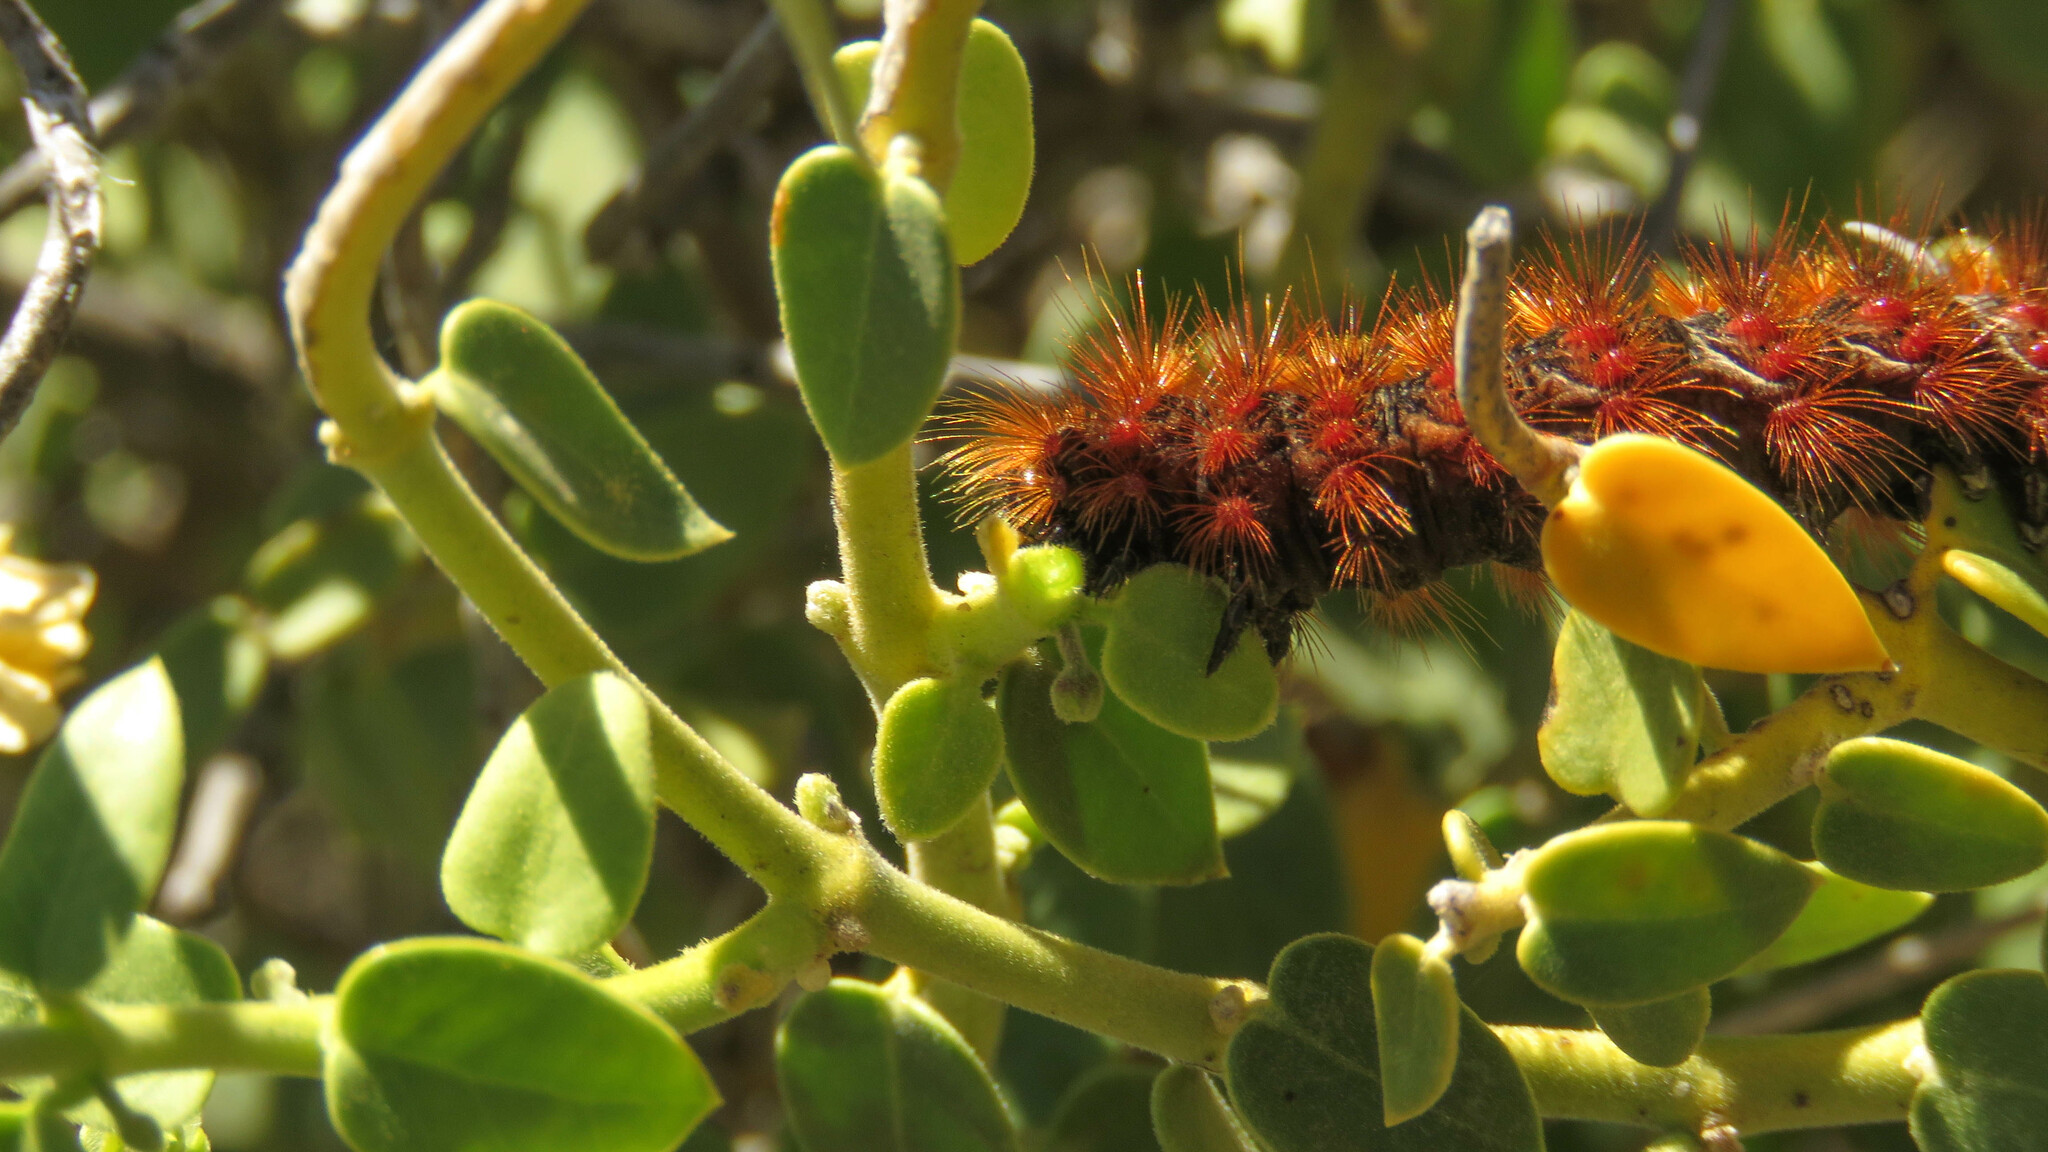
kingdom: Animalia
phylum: Arthropoda
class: Insecta
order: Lepidoptera
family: Erebidae
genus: Paracles
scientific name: Paracles severa
